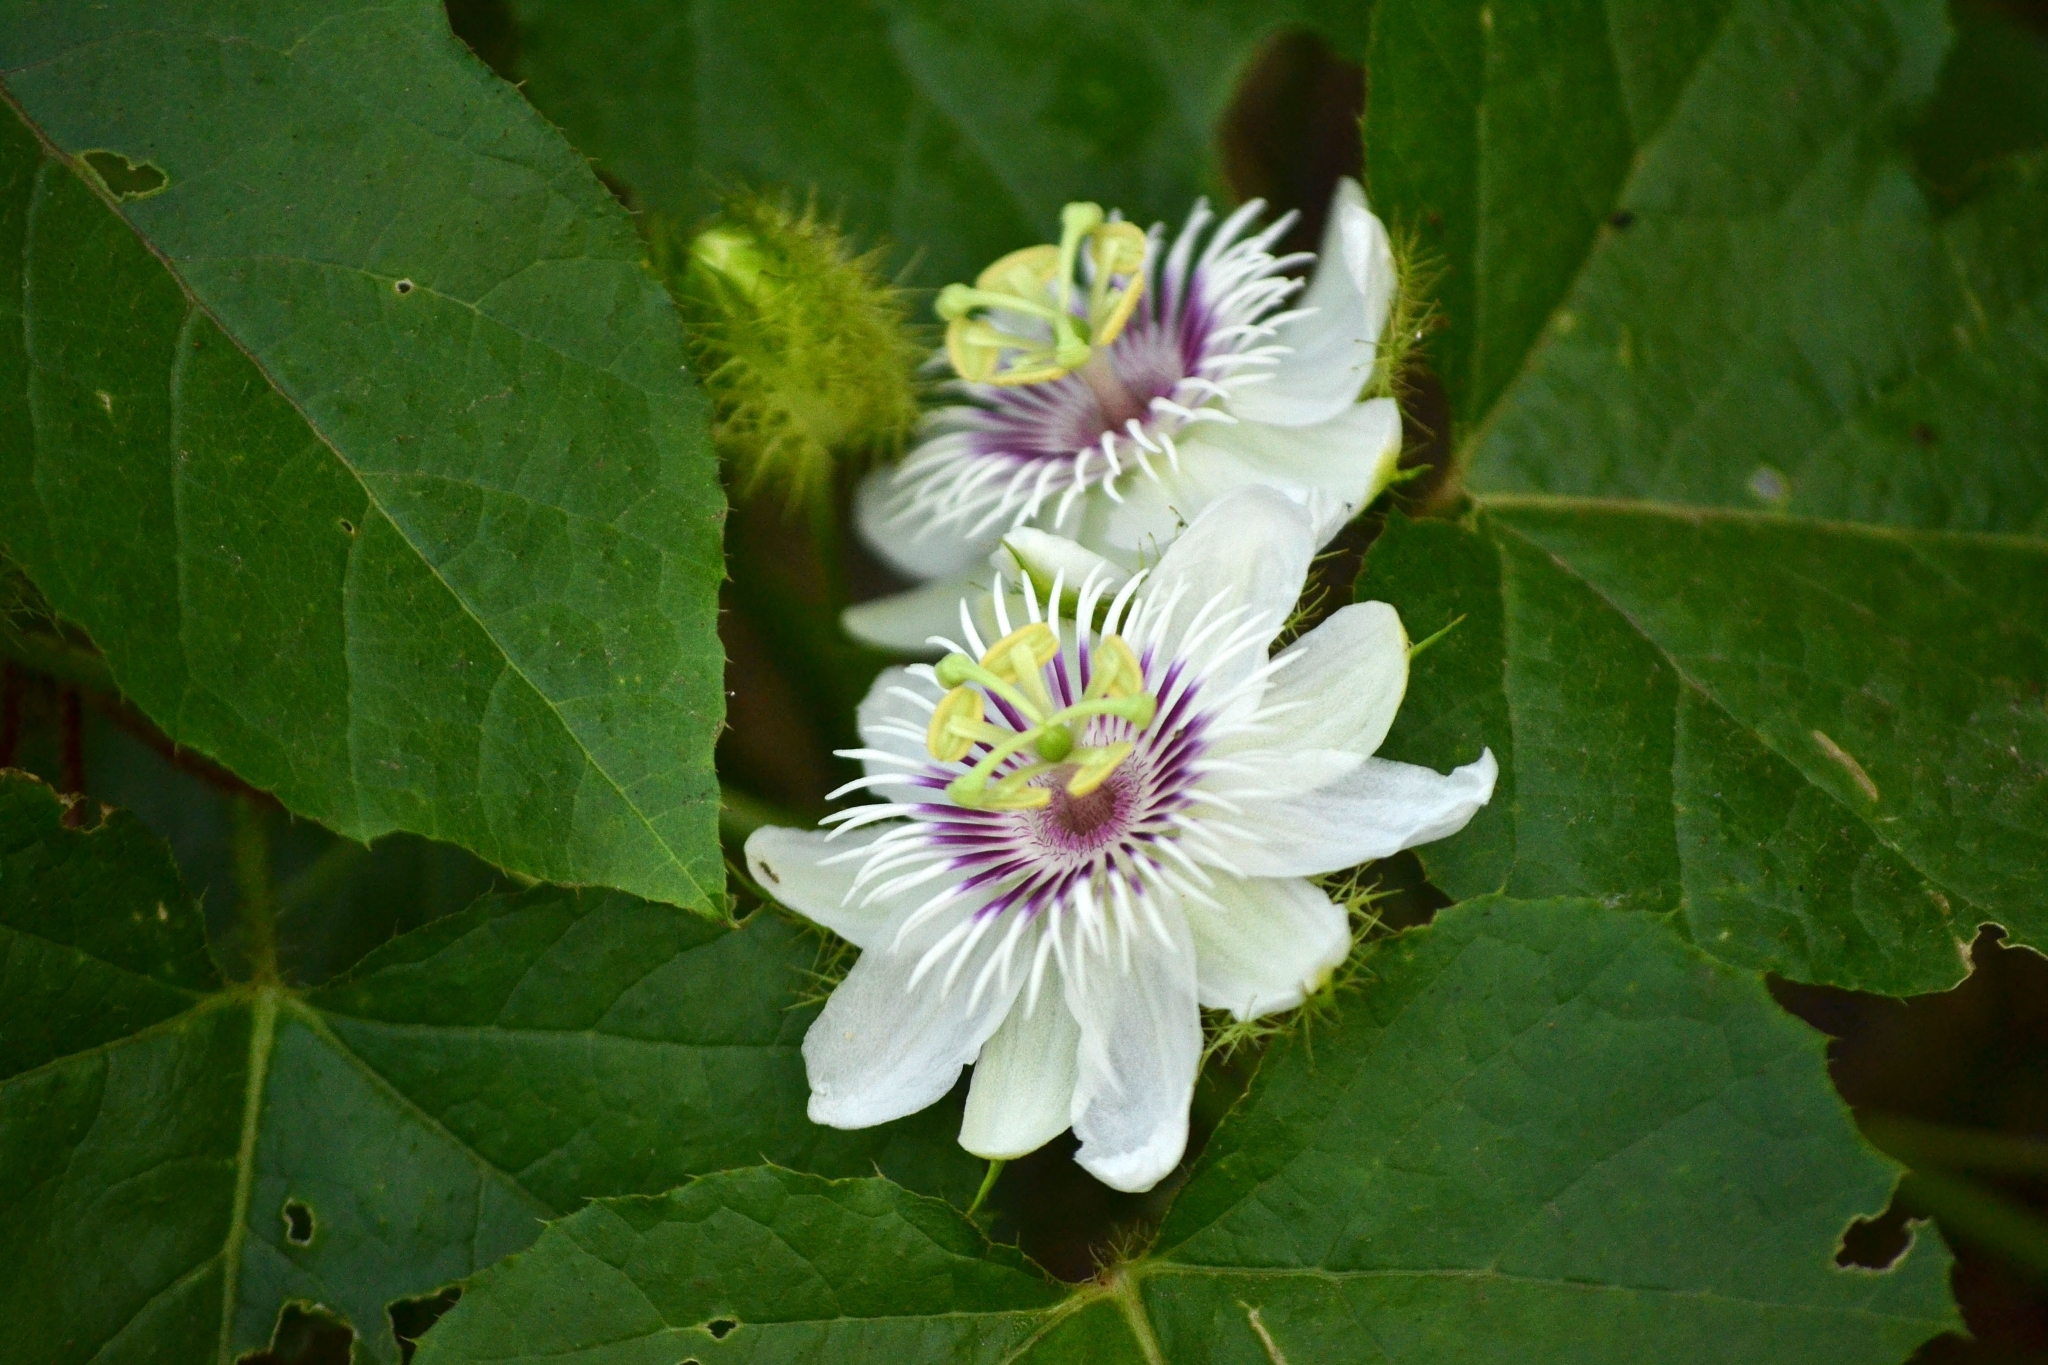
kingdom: Plantae
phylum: Tracheophyta
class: Magnoliopsida
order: Malpighiales
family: Passifloraceae
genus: Passiflora
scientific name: Passiflora vesicaria
